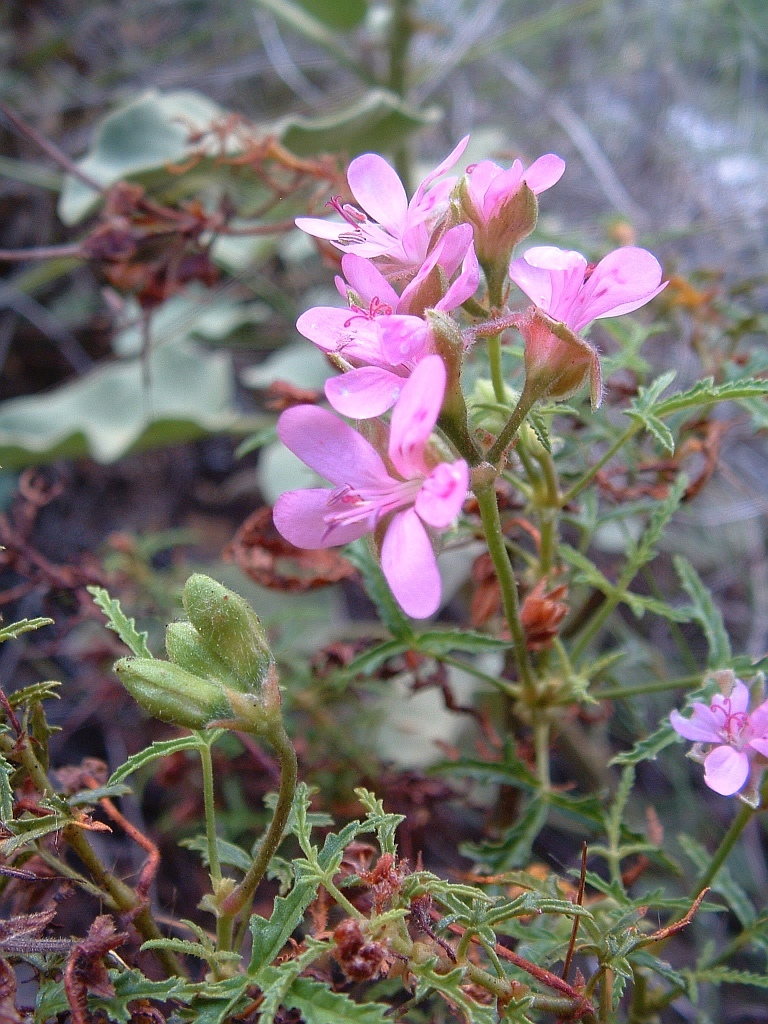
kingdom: Plantae
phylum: Tracheophyta
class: Magnoliopsida
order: Geraniales
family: Geraniaceae
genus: Pelargonium
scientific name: Pelargonium glutinosum
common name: Pheasant-foot geranium
